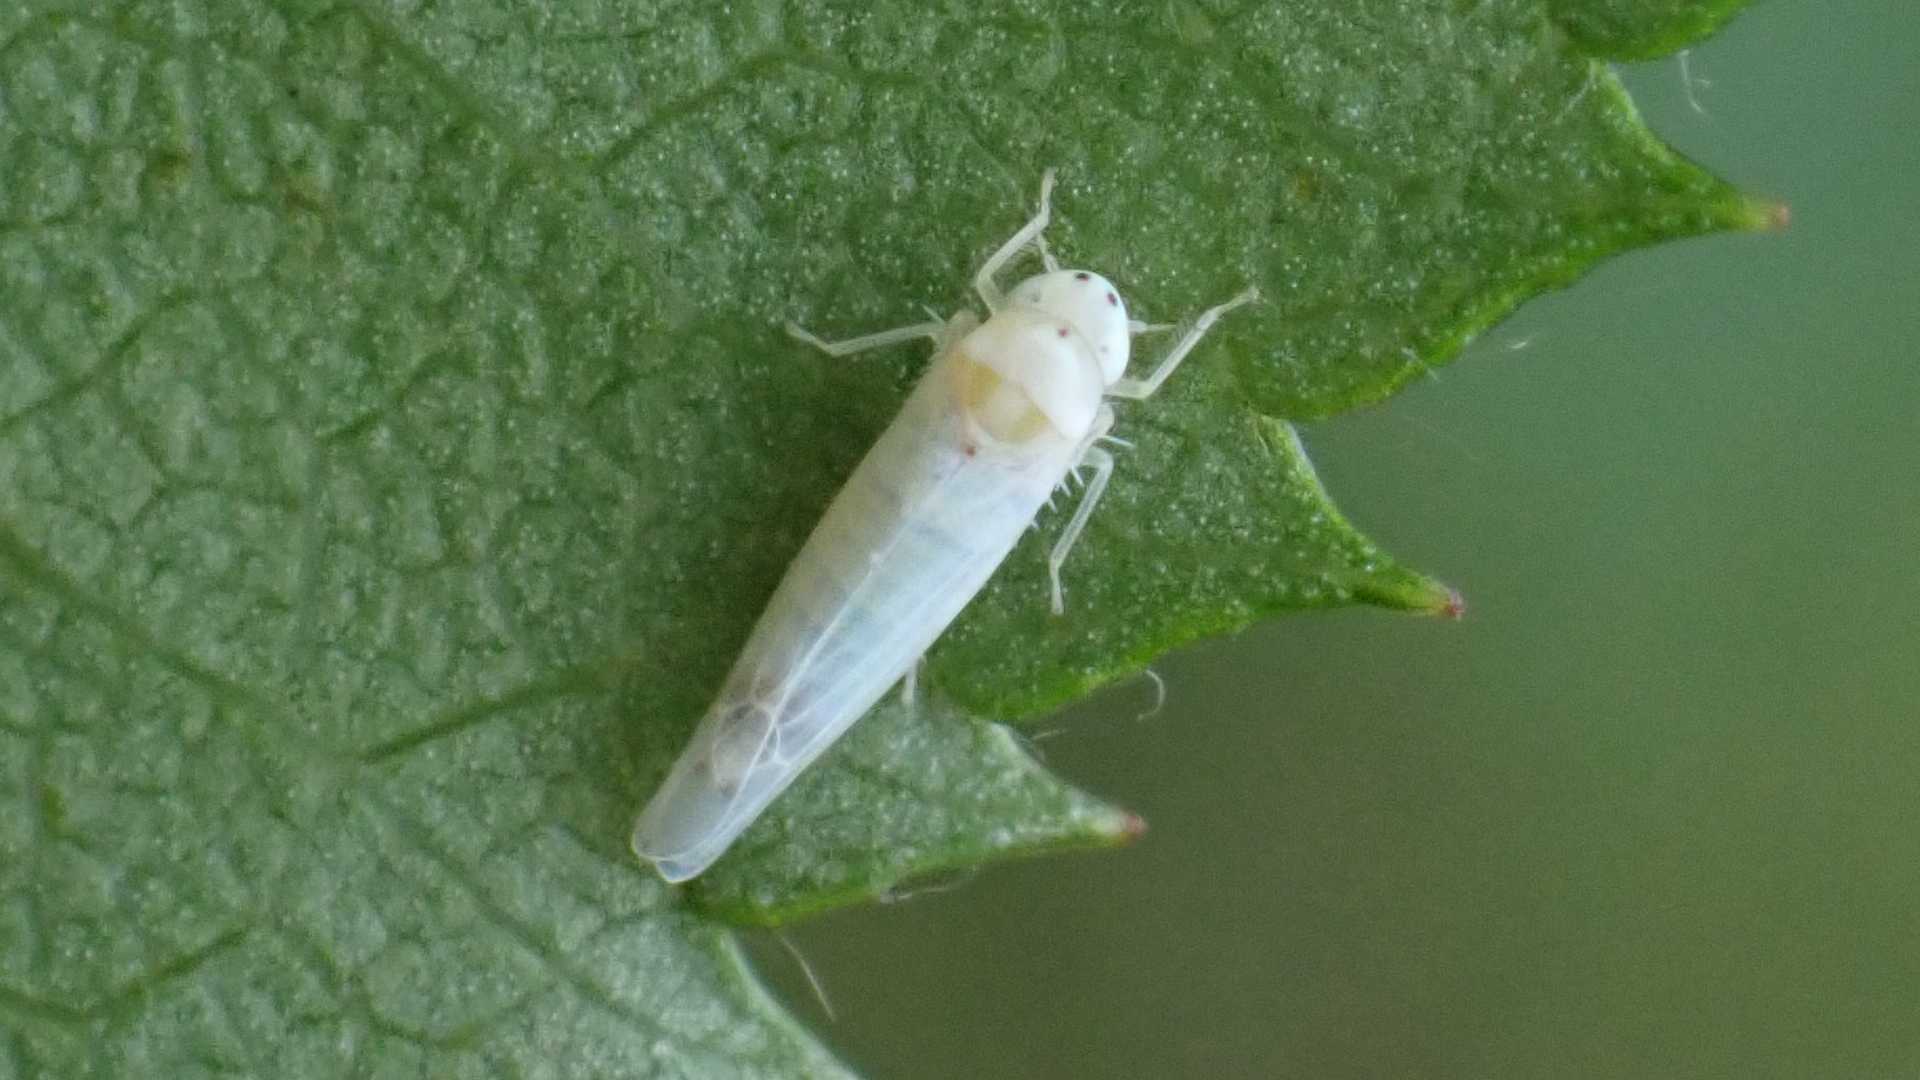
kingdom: Animalia
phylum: Arthropoda
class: Insecta
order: Hemiptera
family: Cicadellidae
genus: Ribautiana
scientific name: Ribautiana debilis
